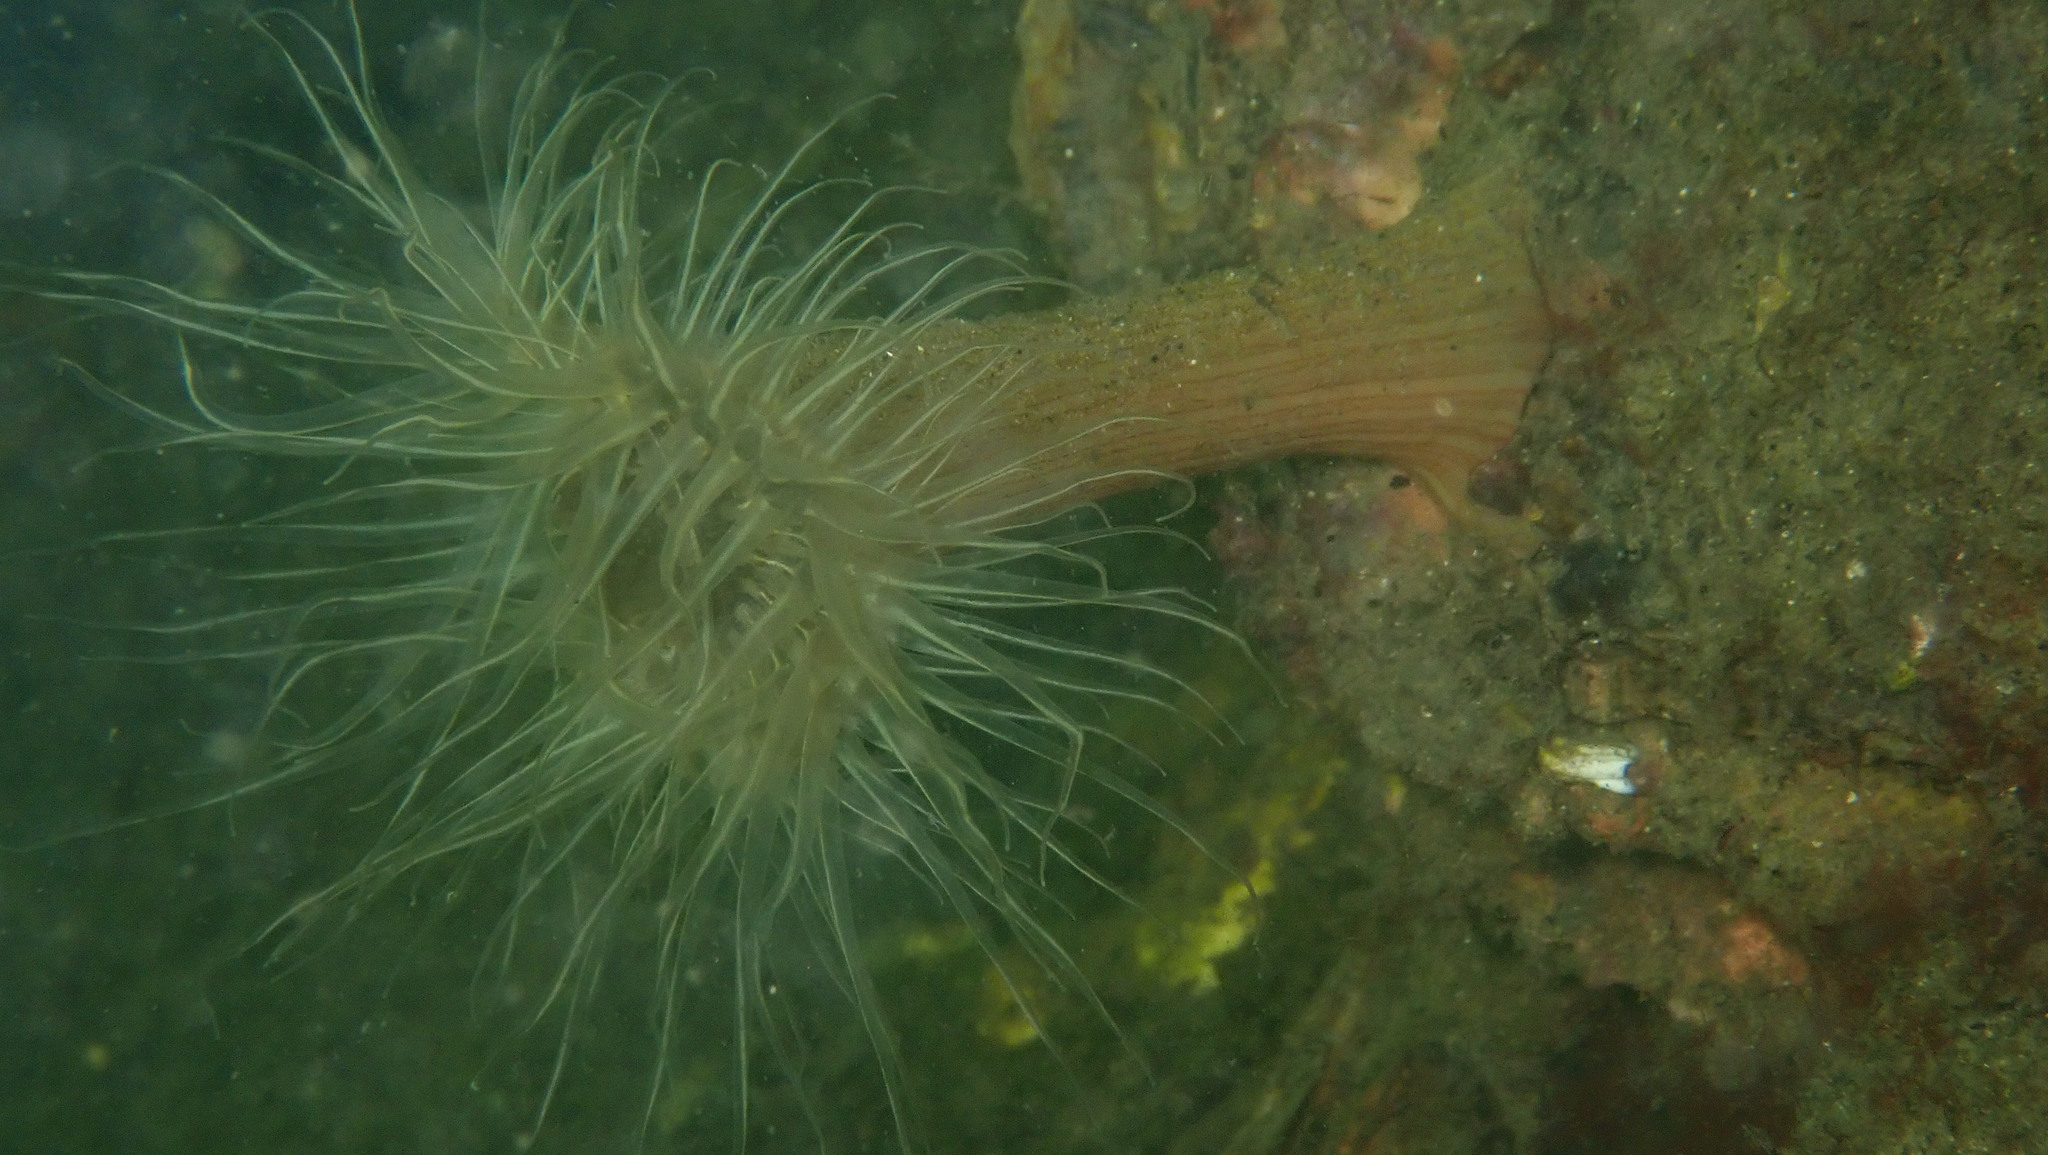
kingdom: Animalia
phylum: Cnidaria
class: Anthozoa
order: Actiniaria
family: Sagartiidae
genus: Sagartia
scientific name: Sagartia undata
